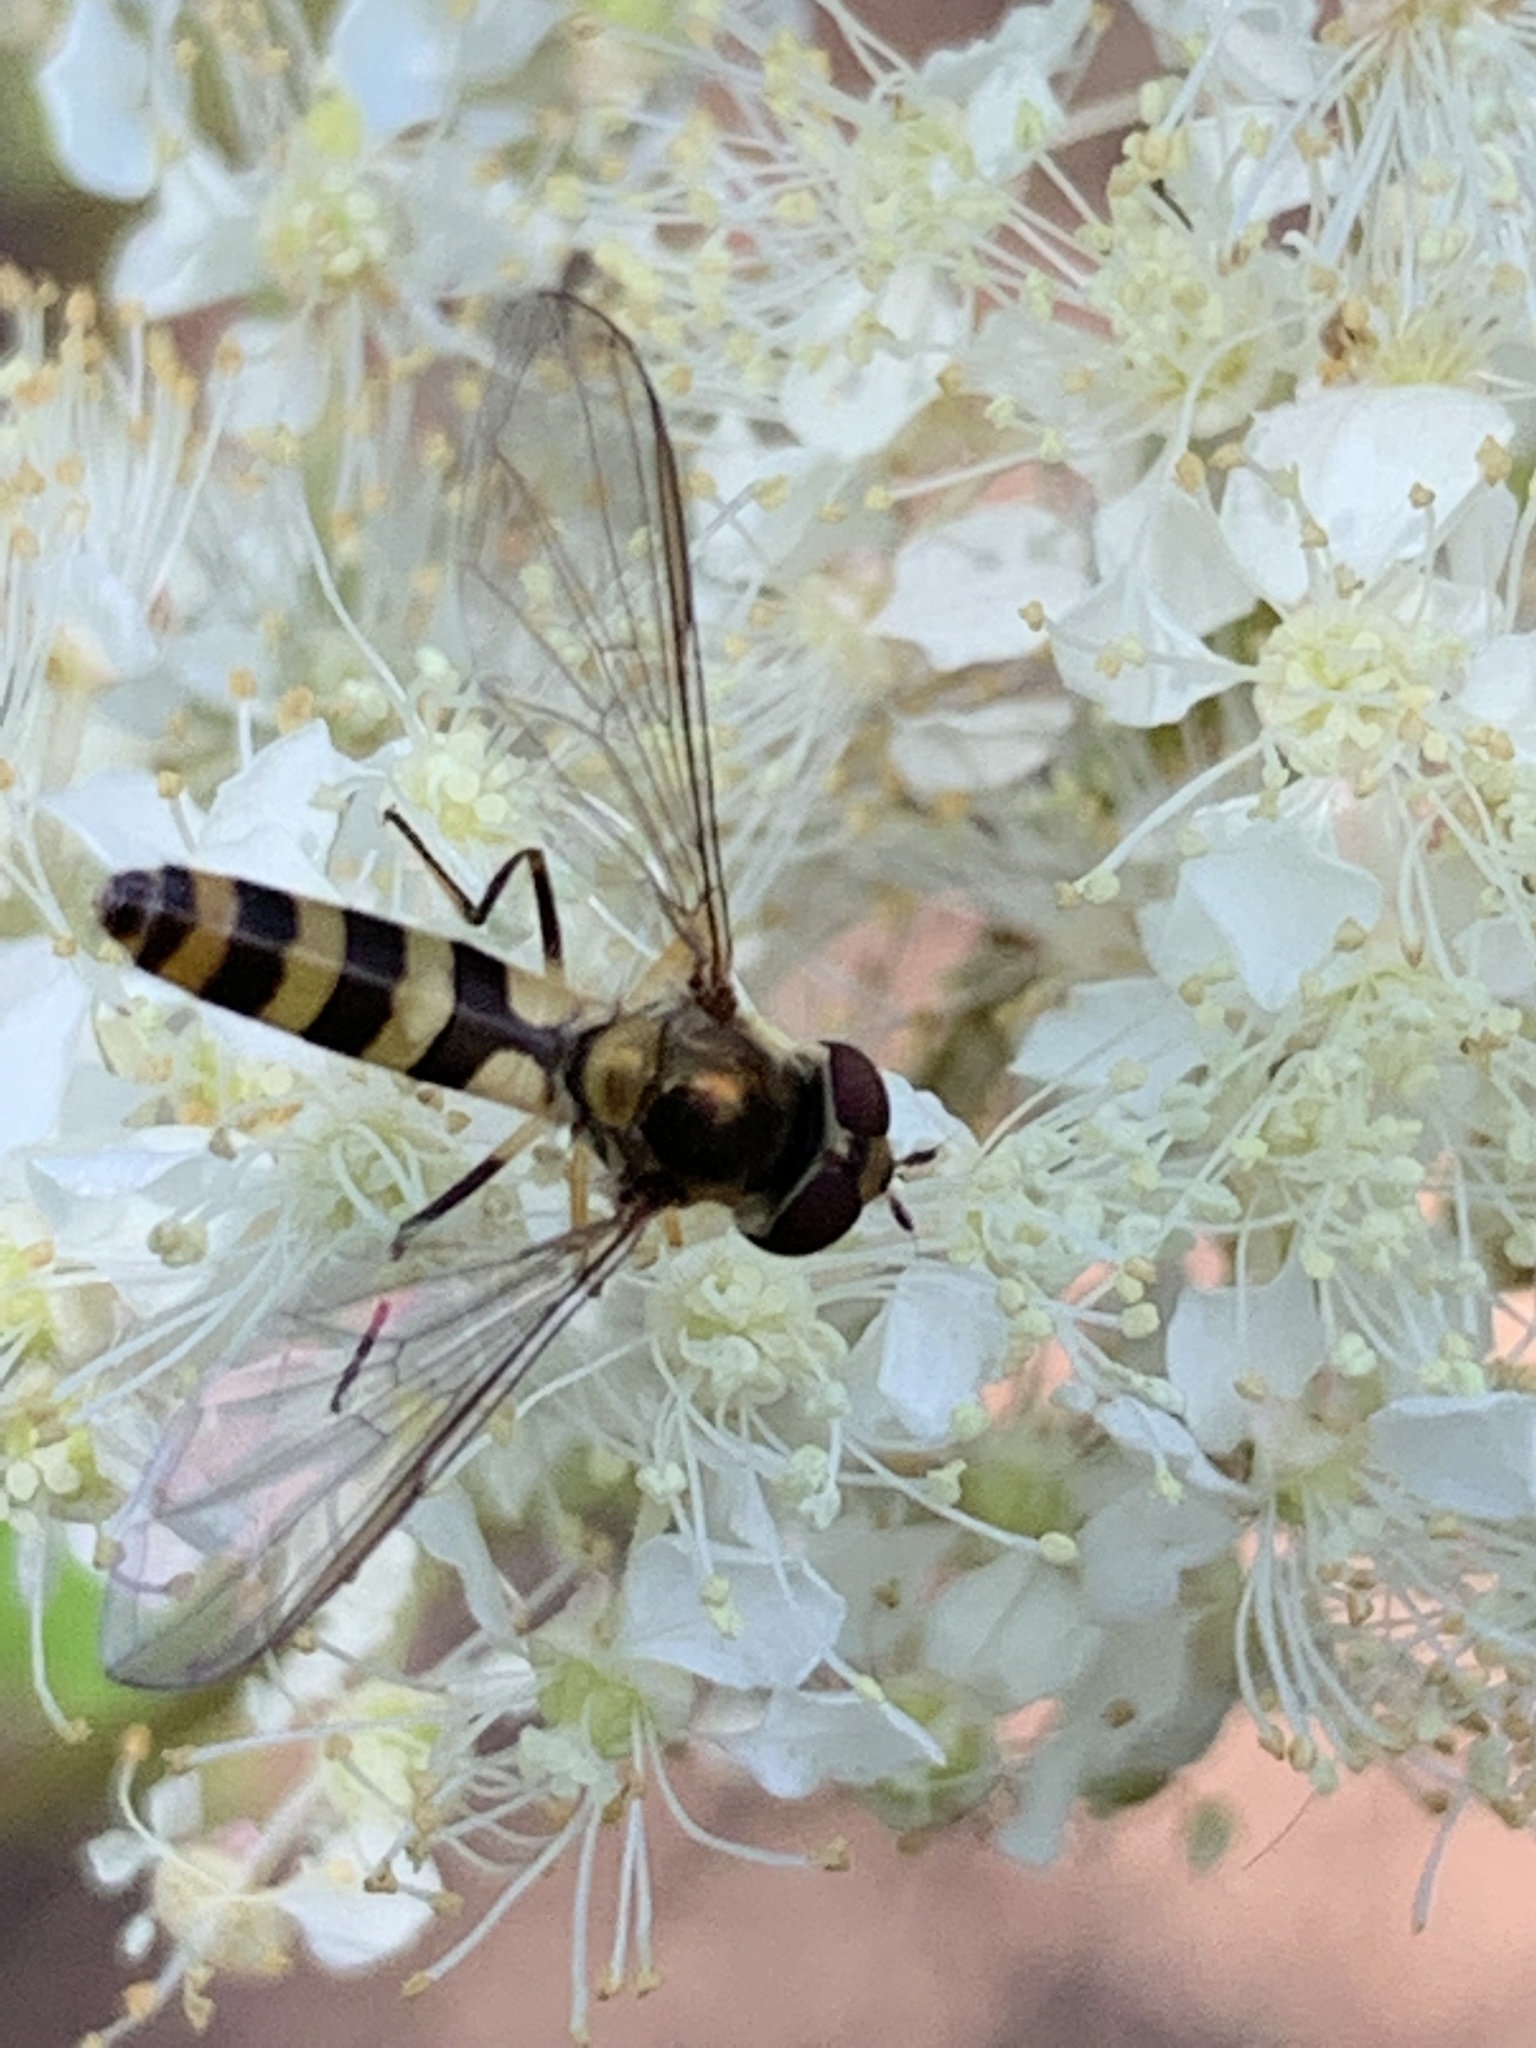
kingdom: Animalia
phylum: Arthropoda
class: Insecta
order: Diptera
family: Syrphidae
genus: Meliscaeva
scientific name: Meliscaeva cinctella
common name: American thintail fly
